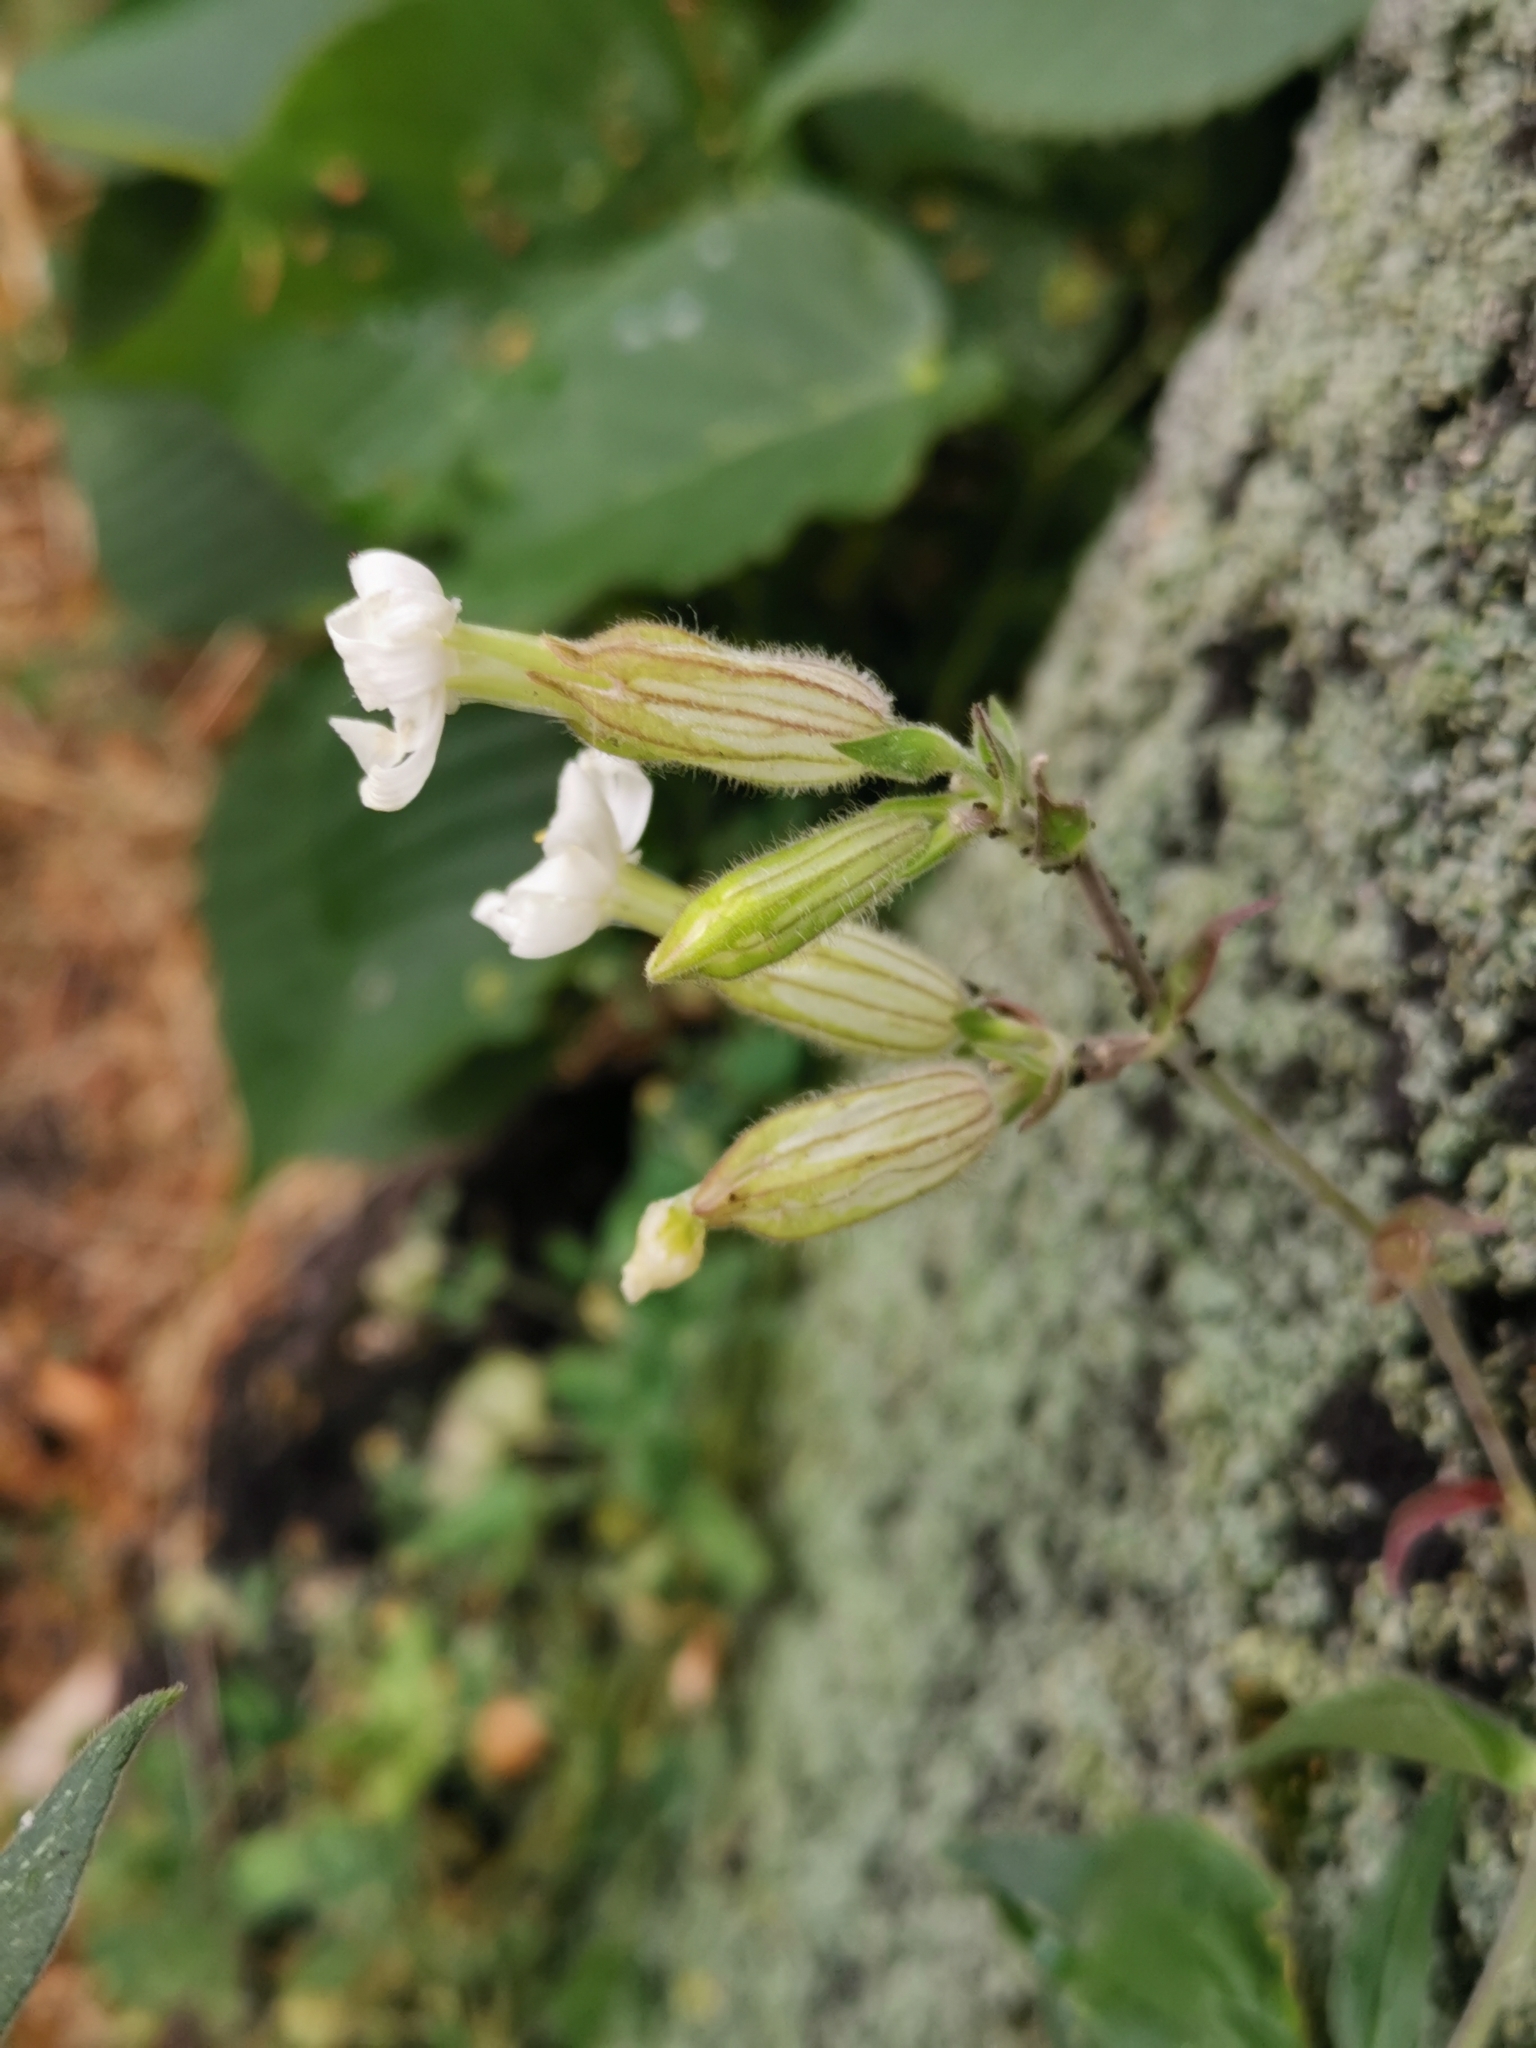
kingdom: Plantae
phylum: Tracheophyta
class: Magnoliopsida
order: Caryophyllales
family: Caryophyllaceae
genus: Silene
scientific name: Silene latifolia
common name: White campion
